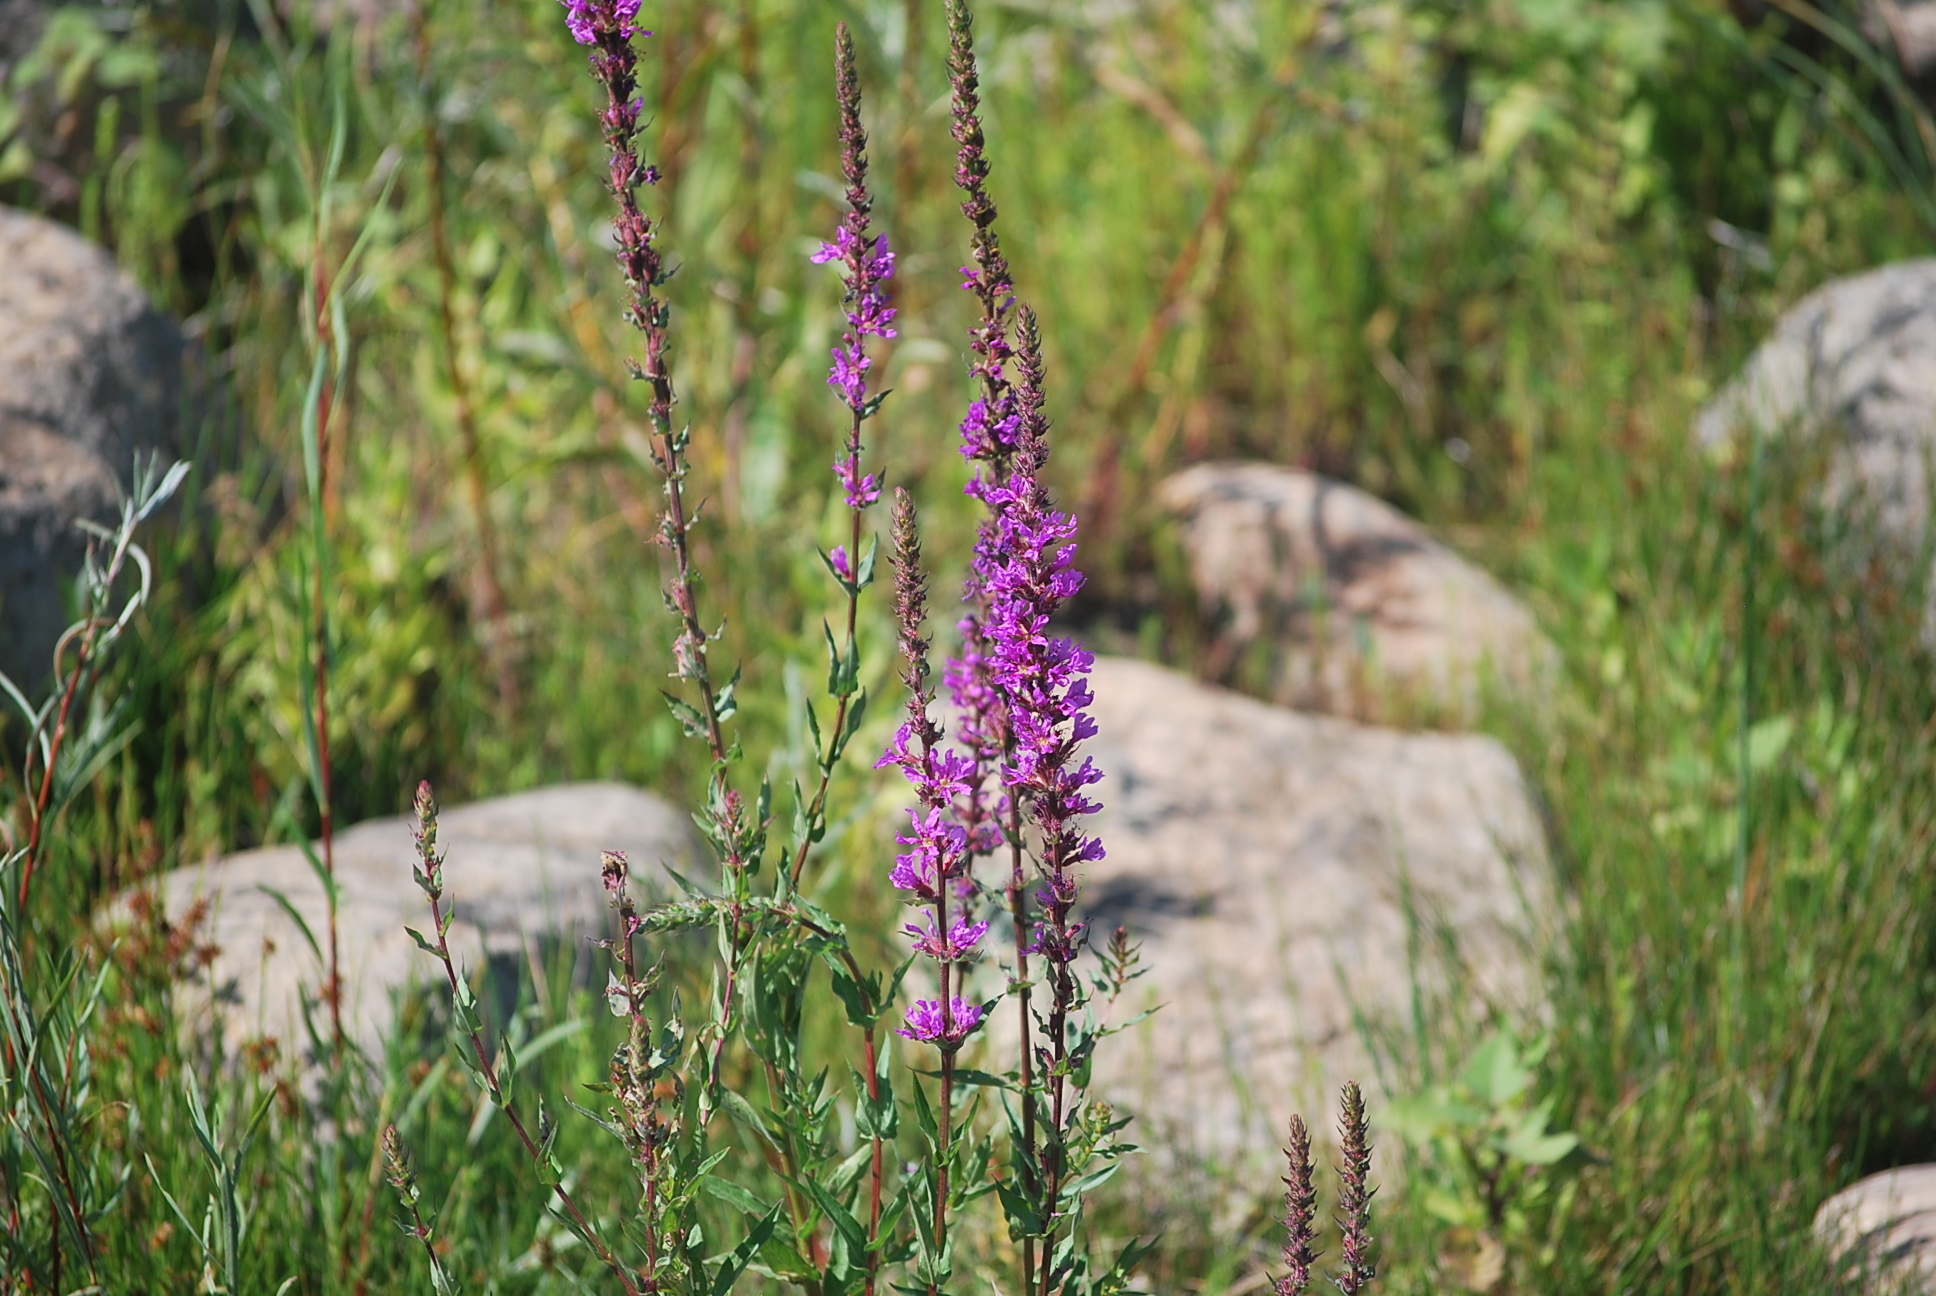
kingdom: Plantae
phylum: Tracheophyta
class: Magnoliopsida
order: Myrtales
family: Lythraceae
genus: Lythrum
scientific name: Lythrum salicaria
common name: Purple loosestrife
